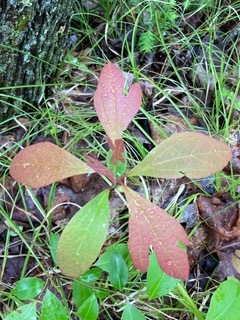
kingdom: Plantae
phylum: Tracheophyta
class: Magnoliopsida
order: Laurales
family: Lauraceae
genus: Sassafras
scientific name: Sassafras albidum
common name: Sassafras
